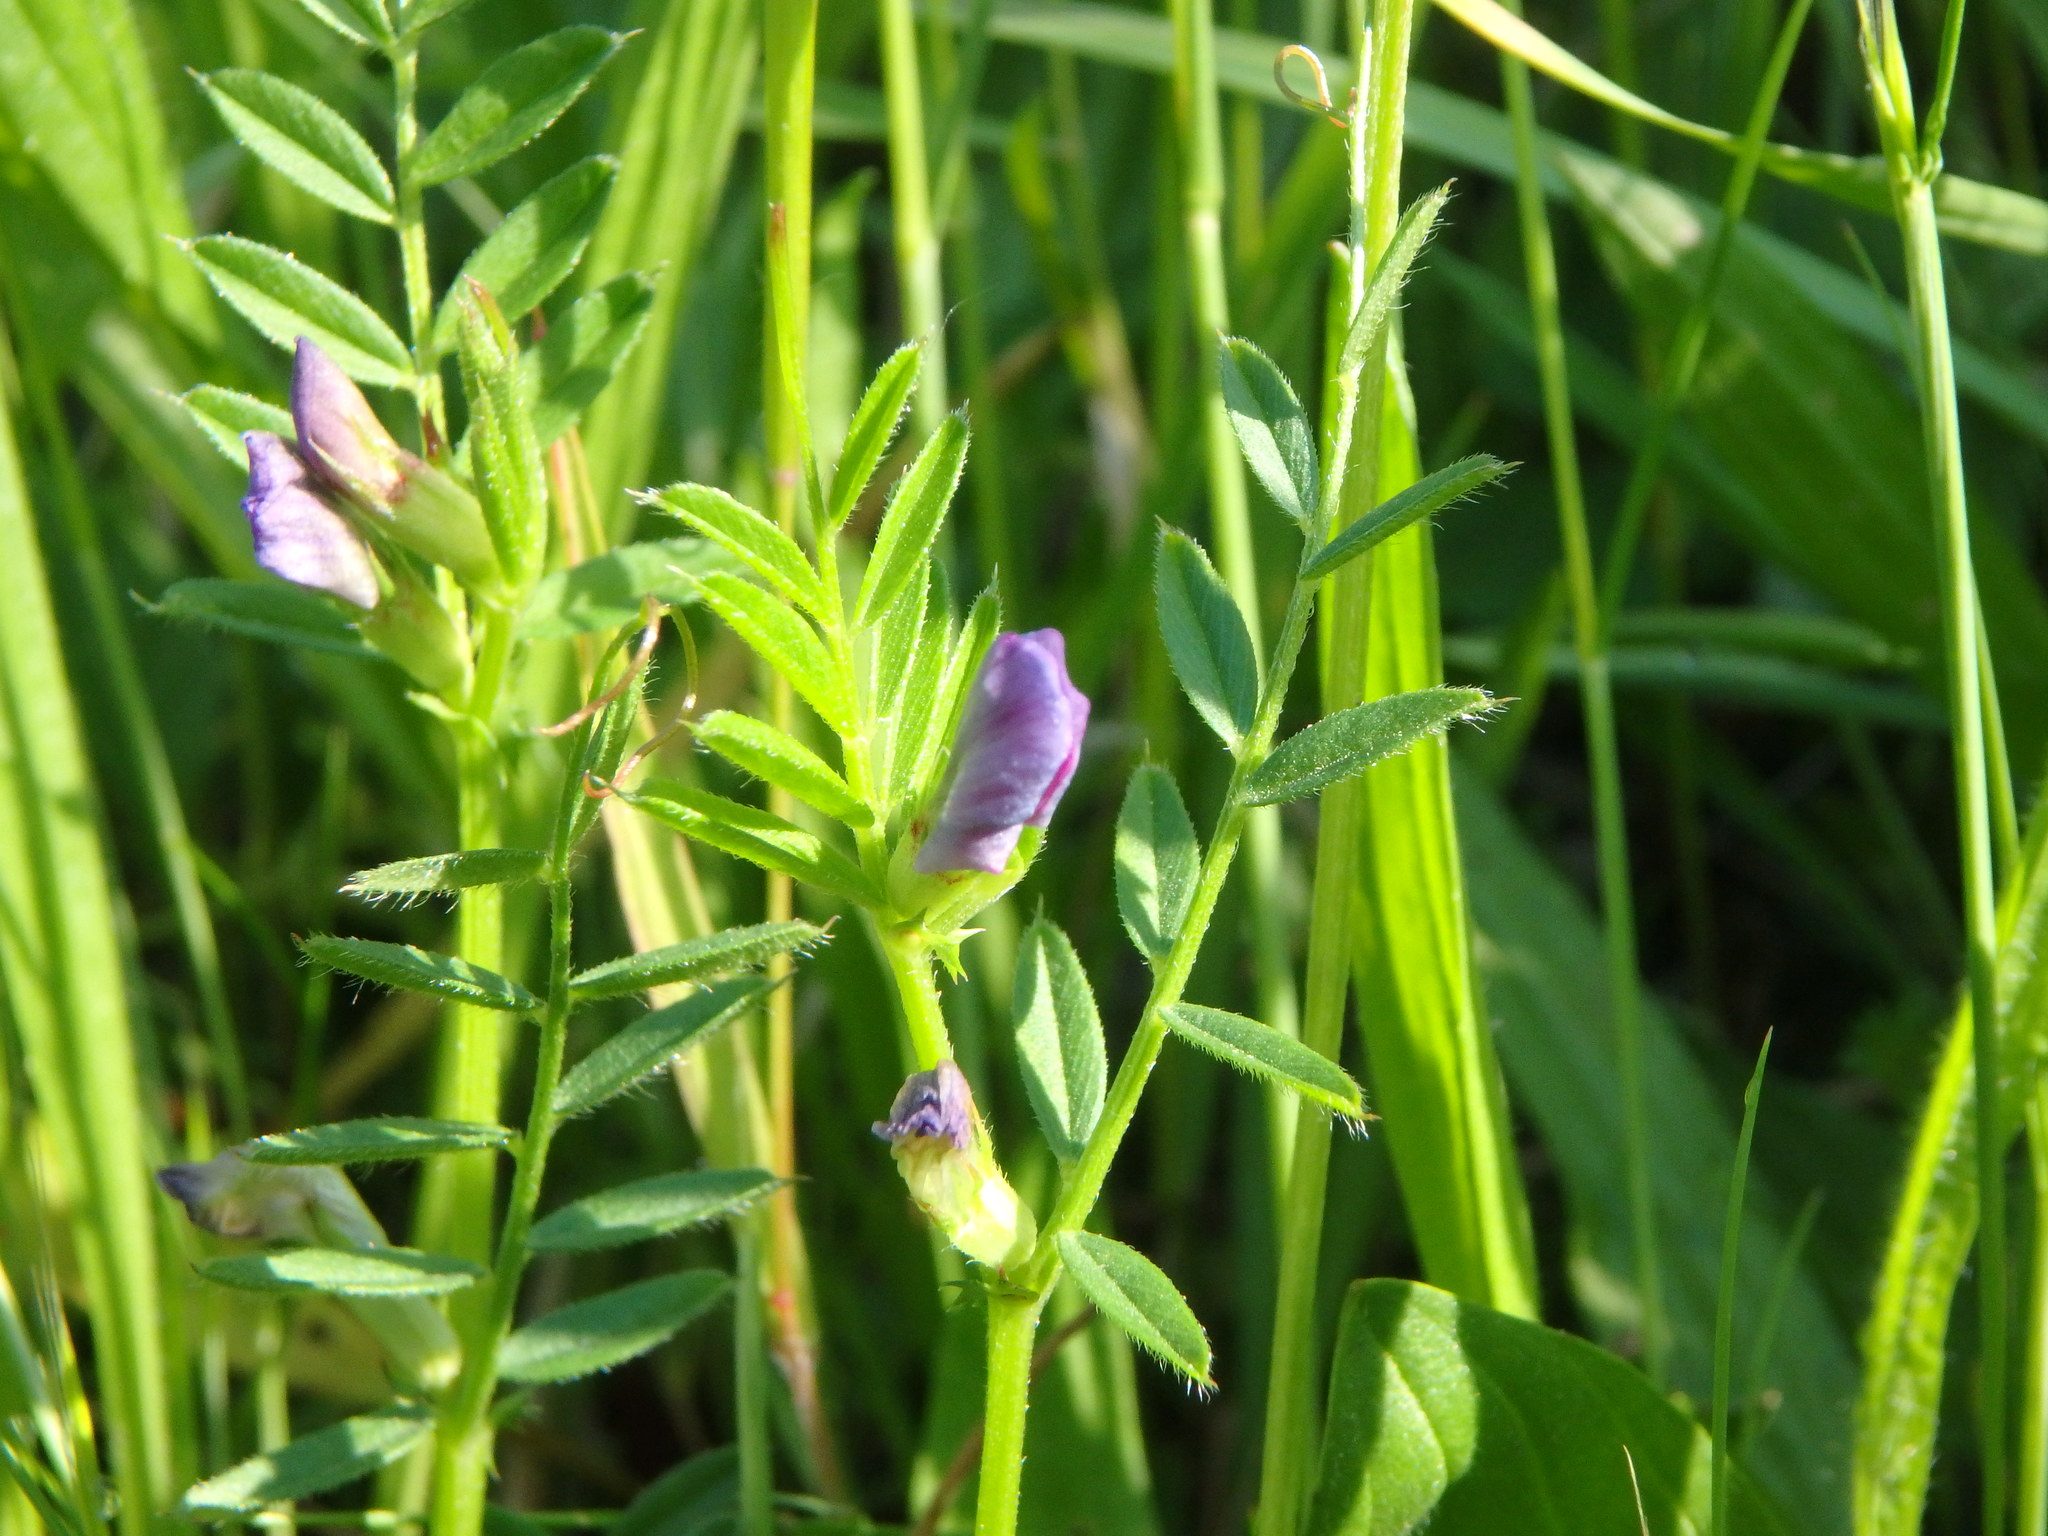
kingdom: Plantae
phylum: Tracheophyta
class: Magnoliopsida
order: Fabales
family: Fabaceae
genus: Vicia
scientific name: Vicia sativa
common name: Garden vetch
